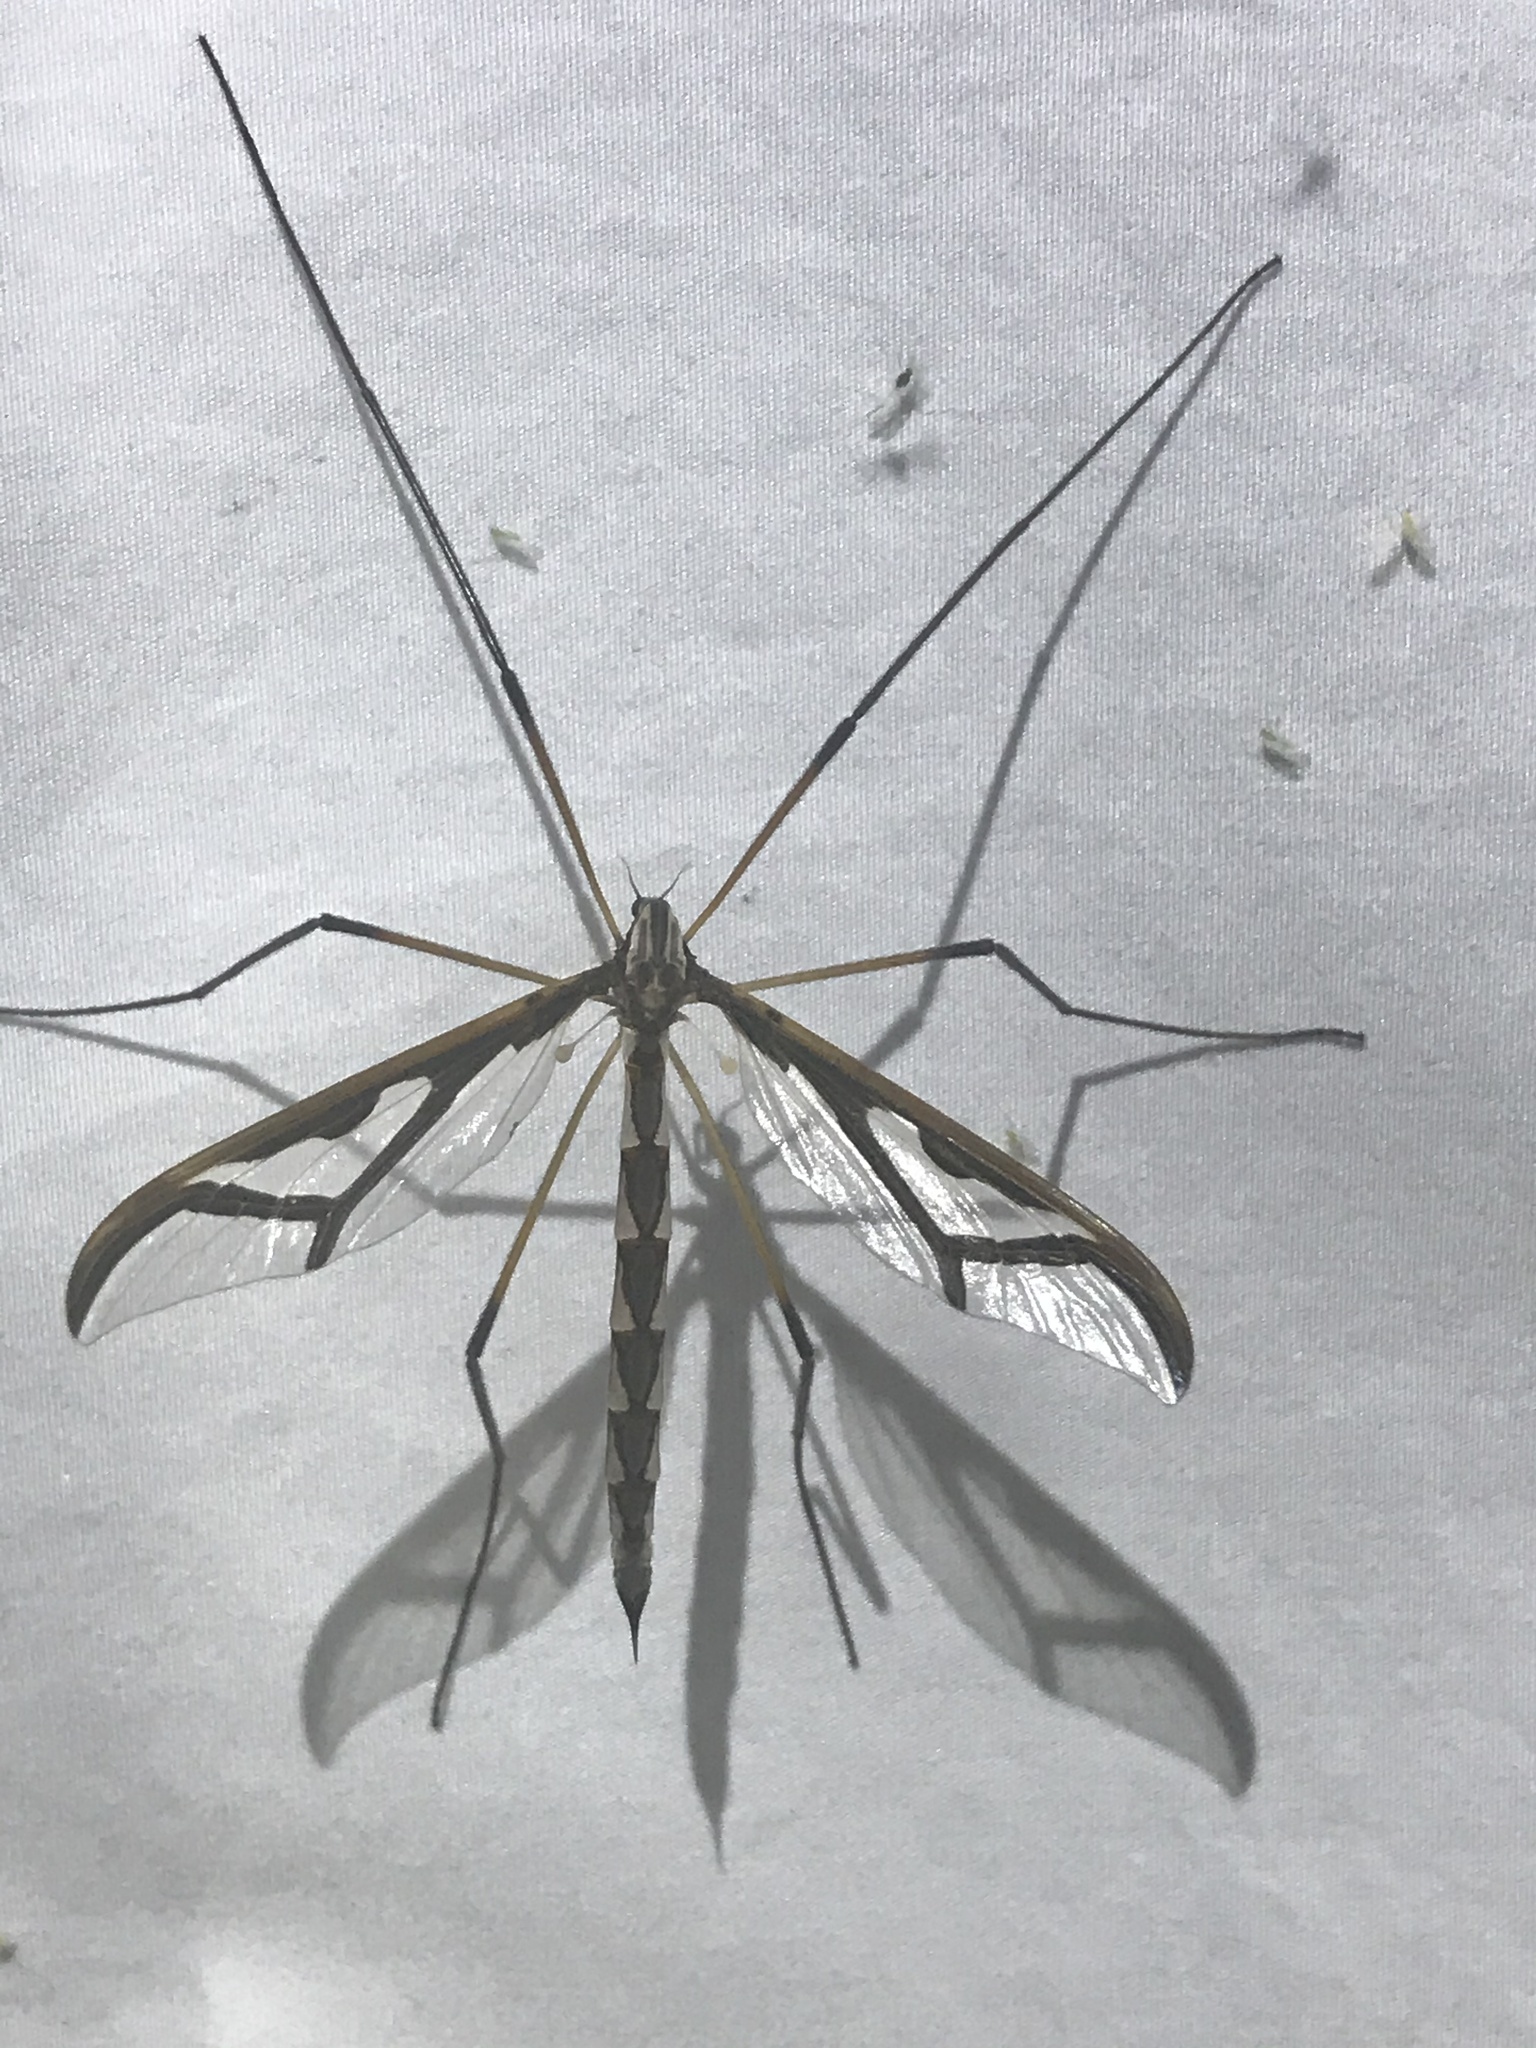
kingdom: Animalia
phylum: Arthropoda
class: Insecta
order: Diptera
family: Pediciidae
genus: Pedicia
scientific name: Pedicia albivitta
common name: Giant eastern crane fly
